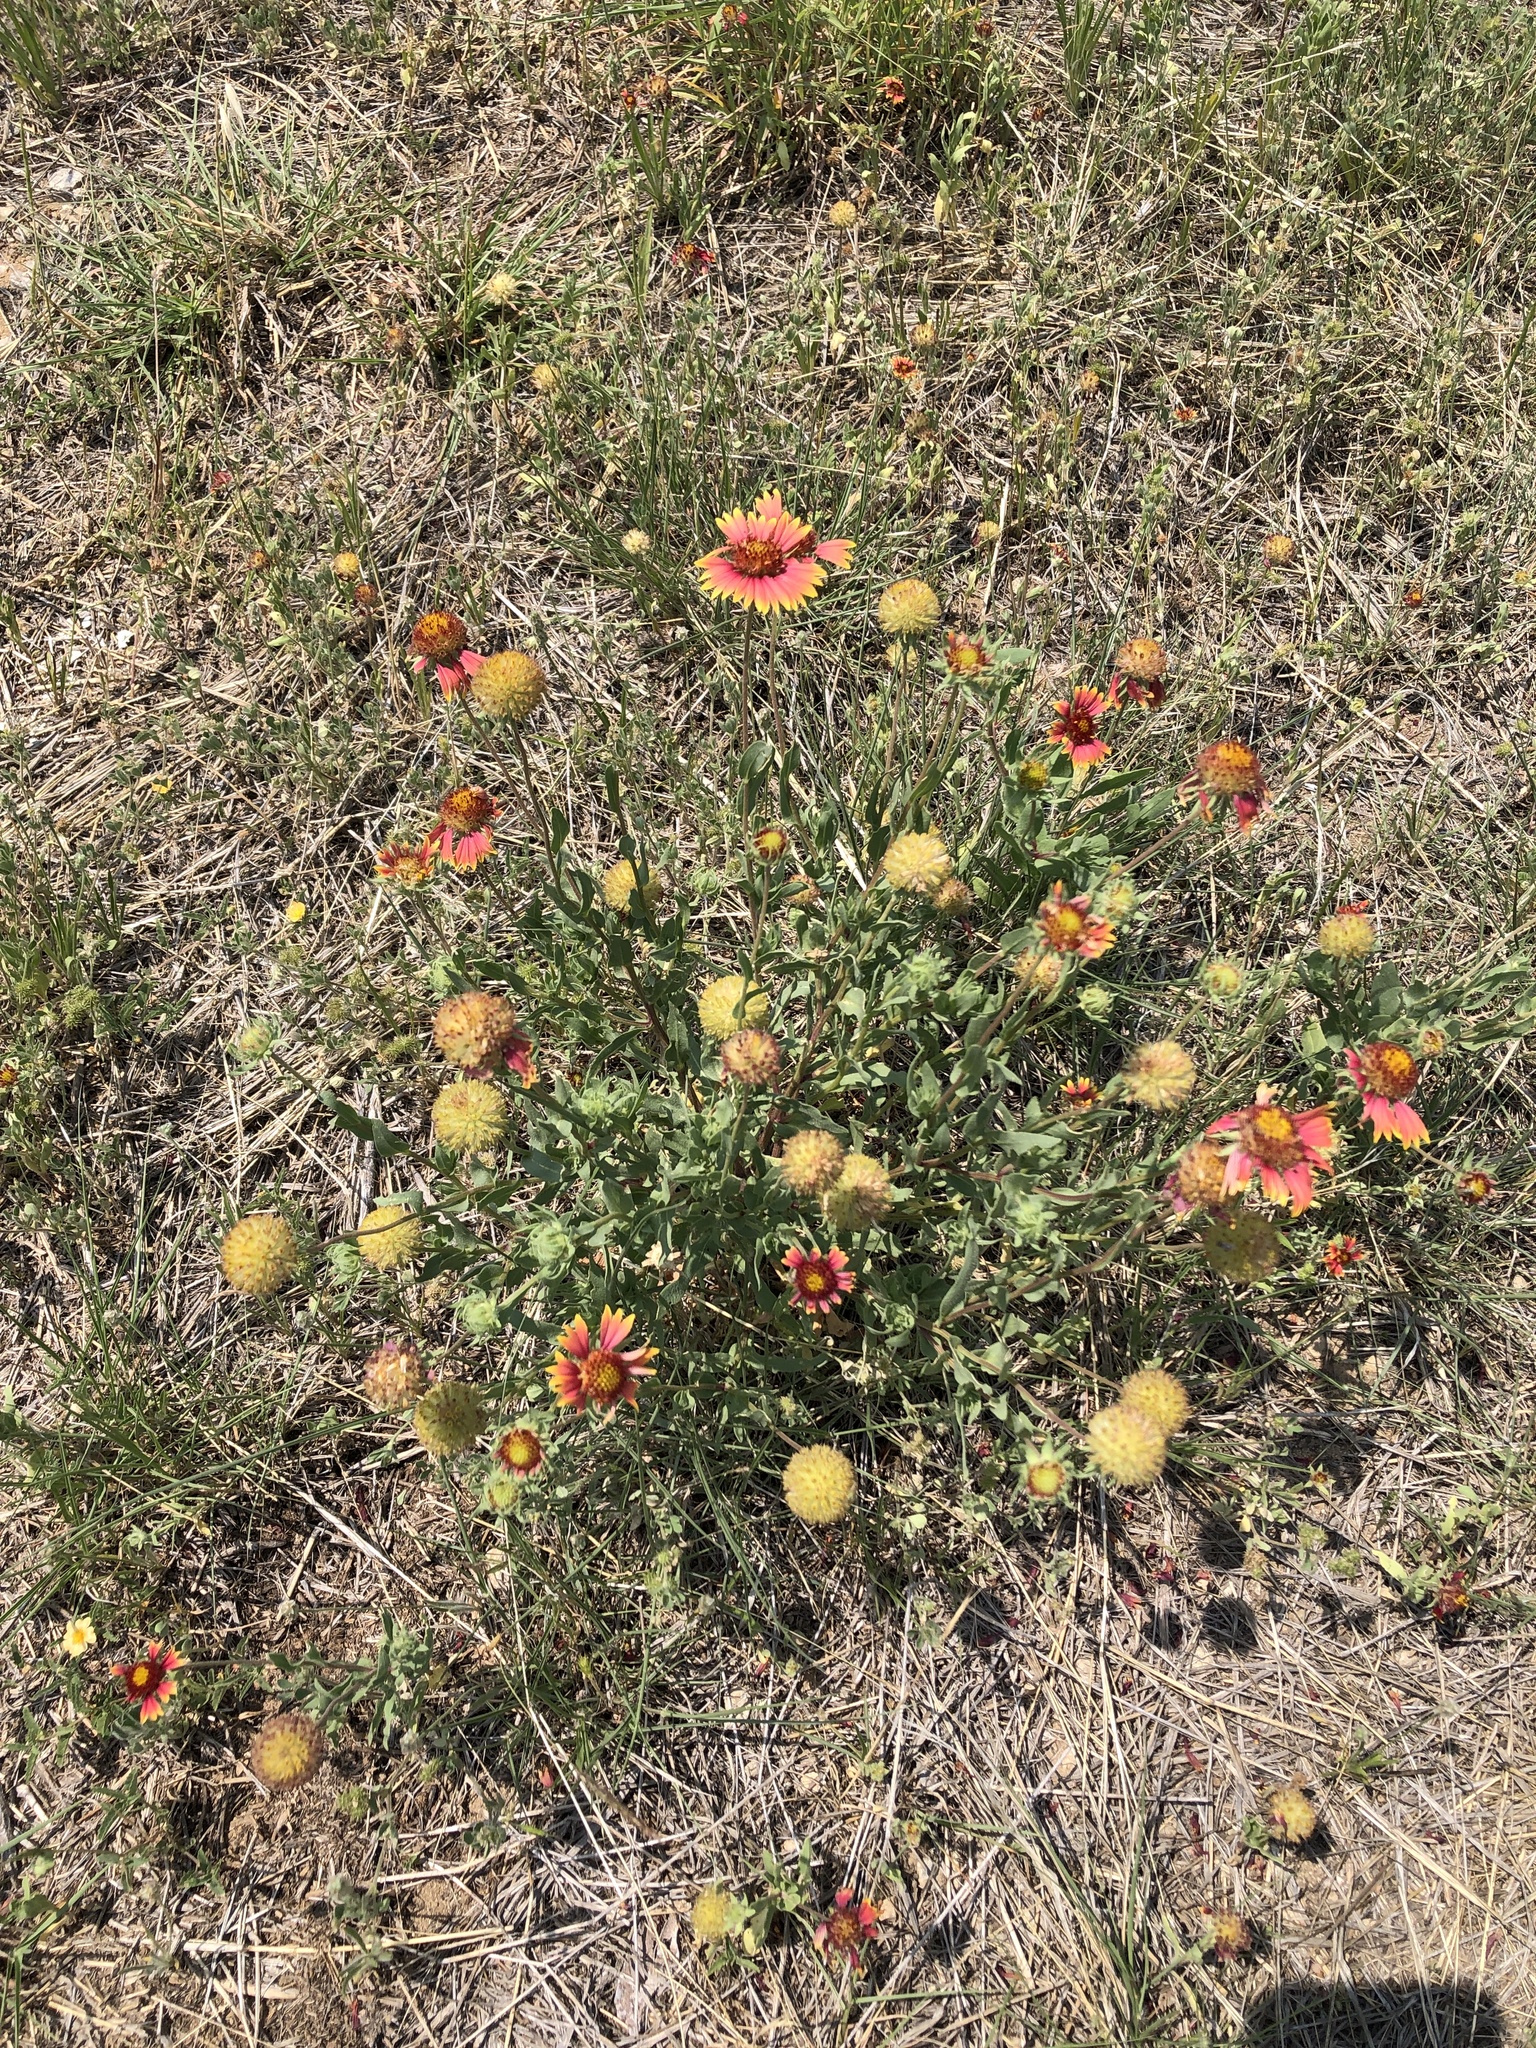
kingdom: Plantae
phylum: Tracheophyta
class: Magnoliopsida
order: Asterales
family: Asteraceae
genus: Gaillardia
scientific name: Gaillardia pulchella
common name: Firewheel
